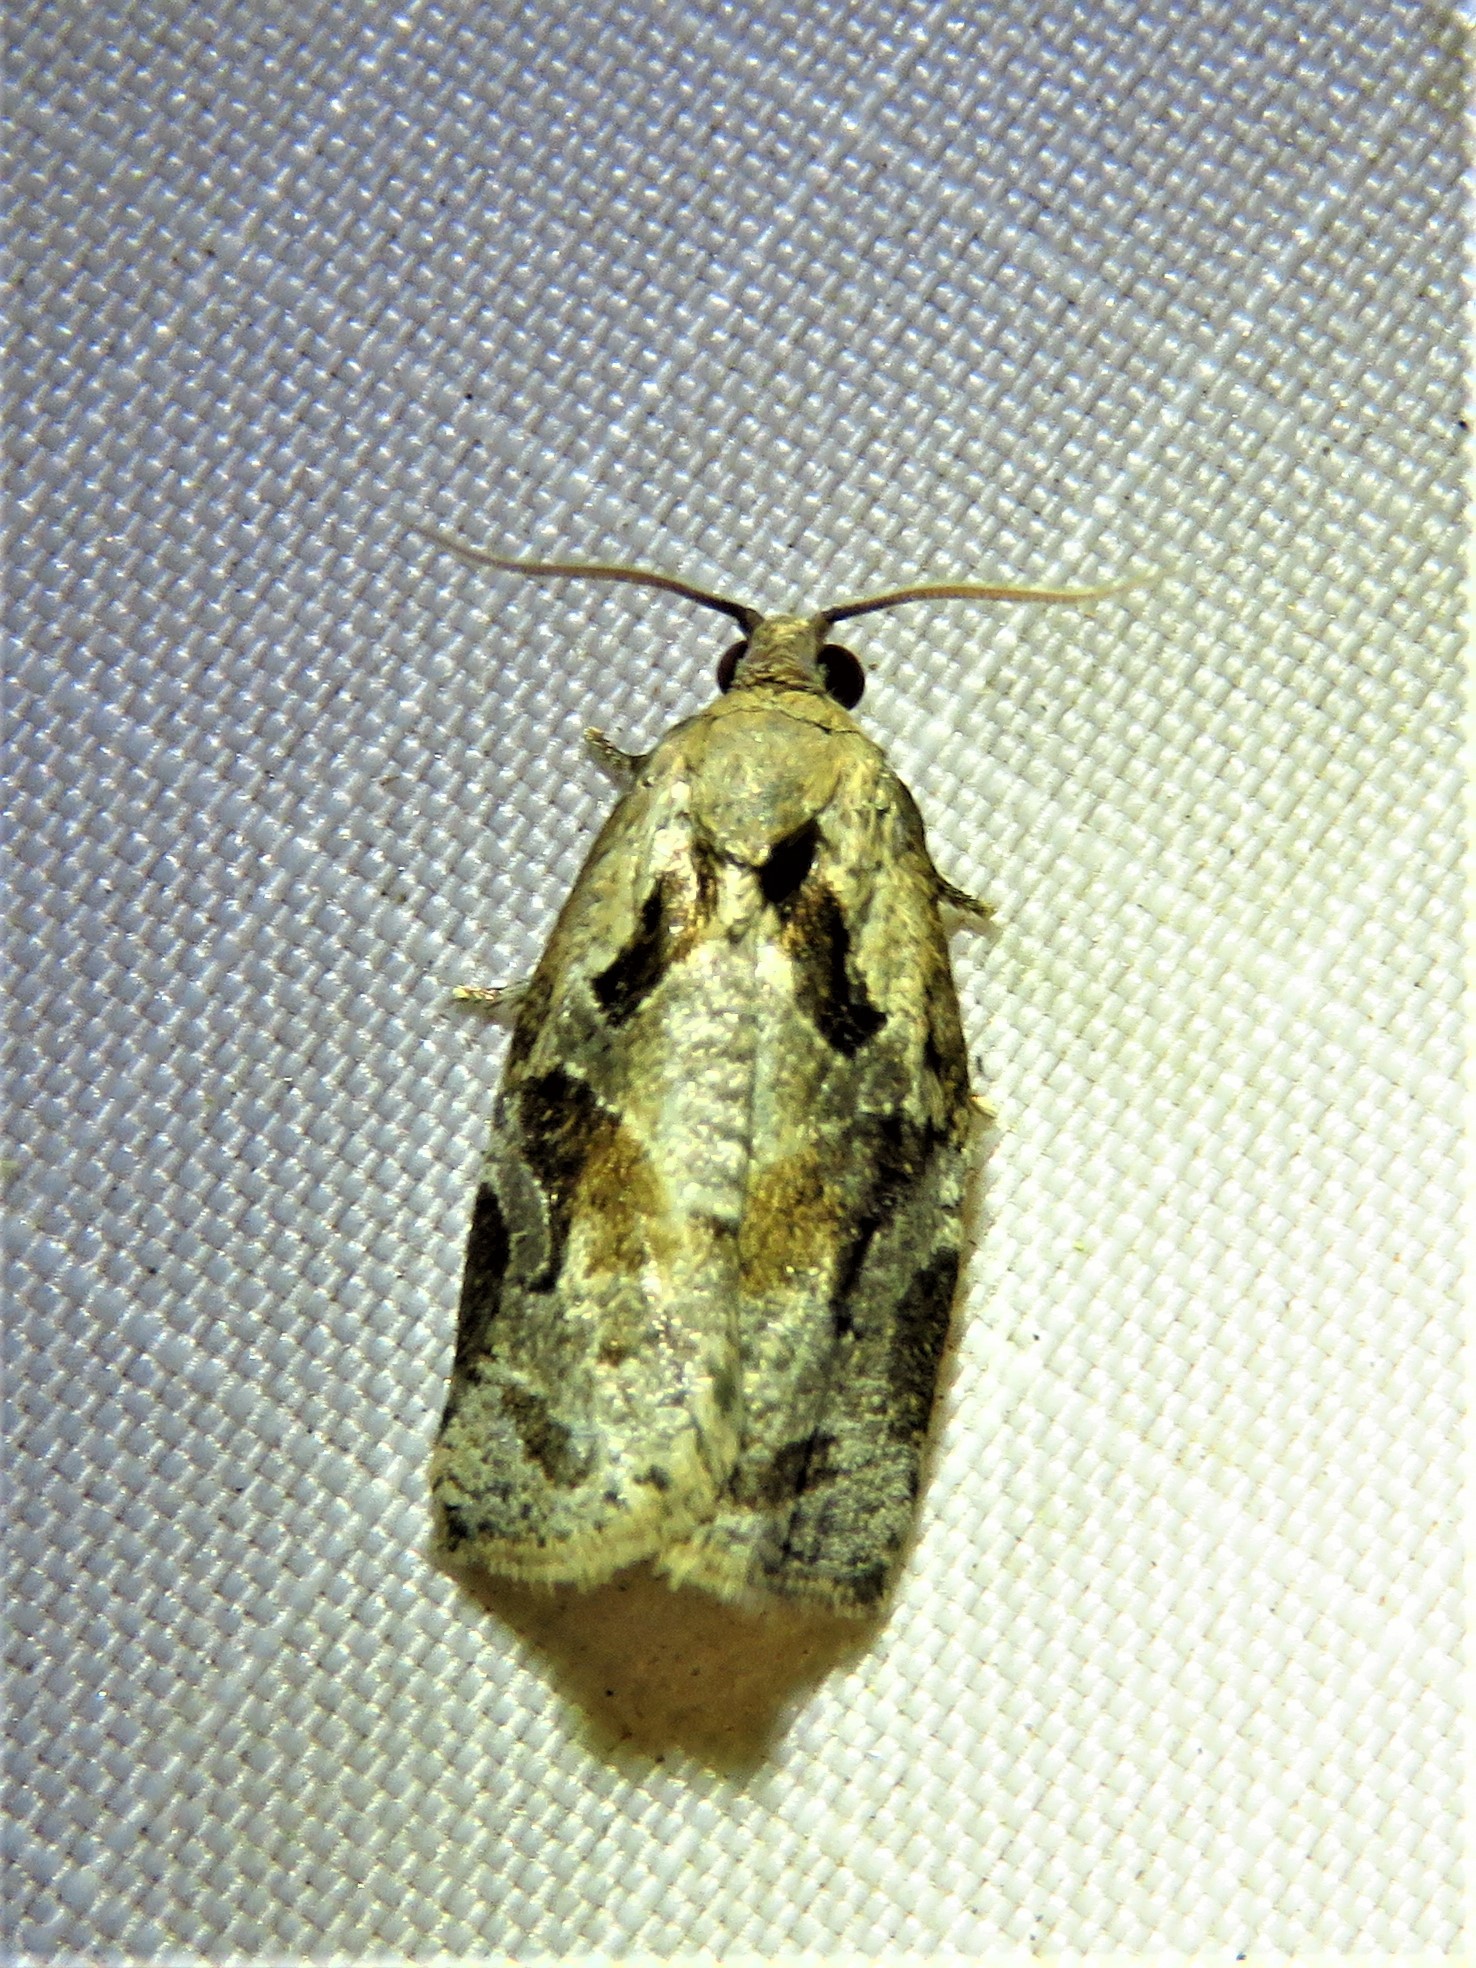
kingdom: Animalia
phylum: Arthropoda
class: Insecta
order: Lepidoptera
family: Tortricidae
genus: Archips
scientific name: Archips grisea
